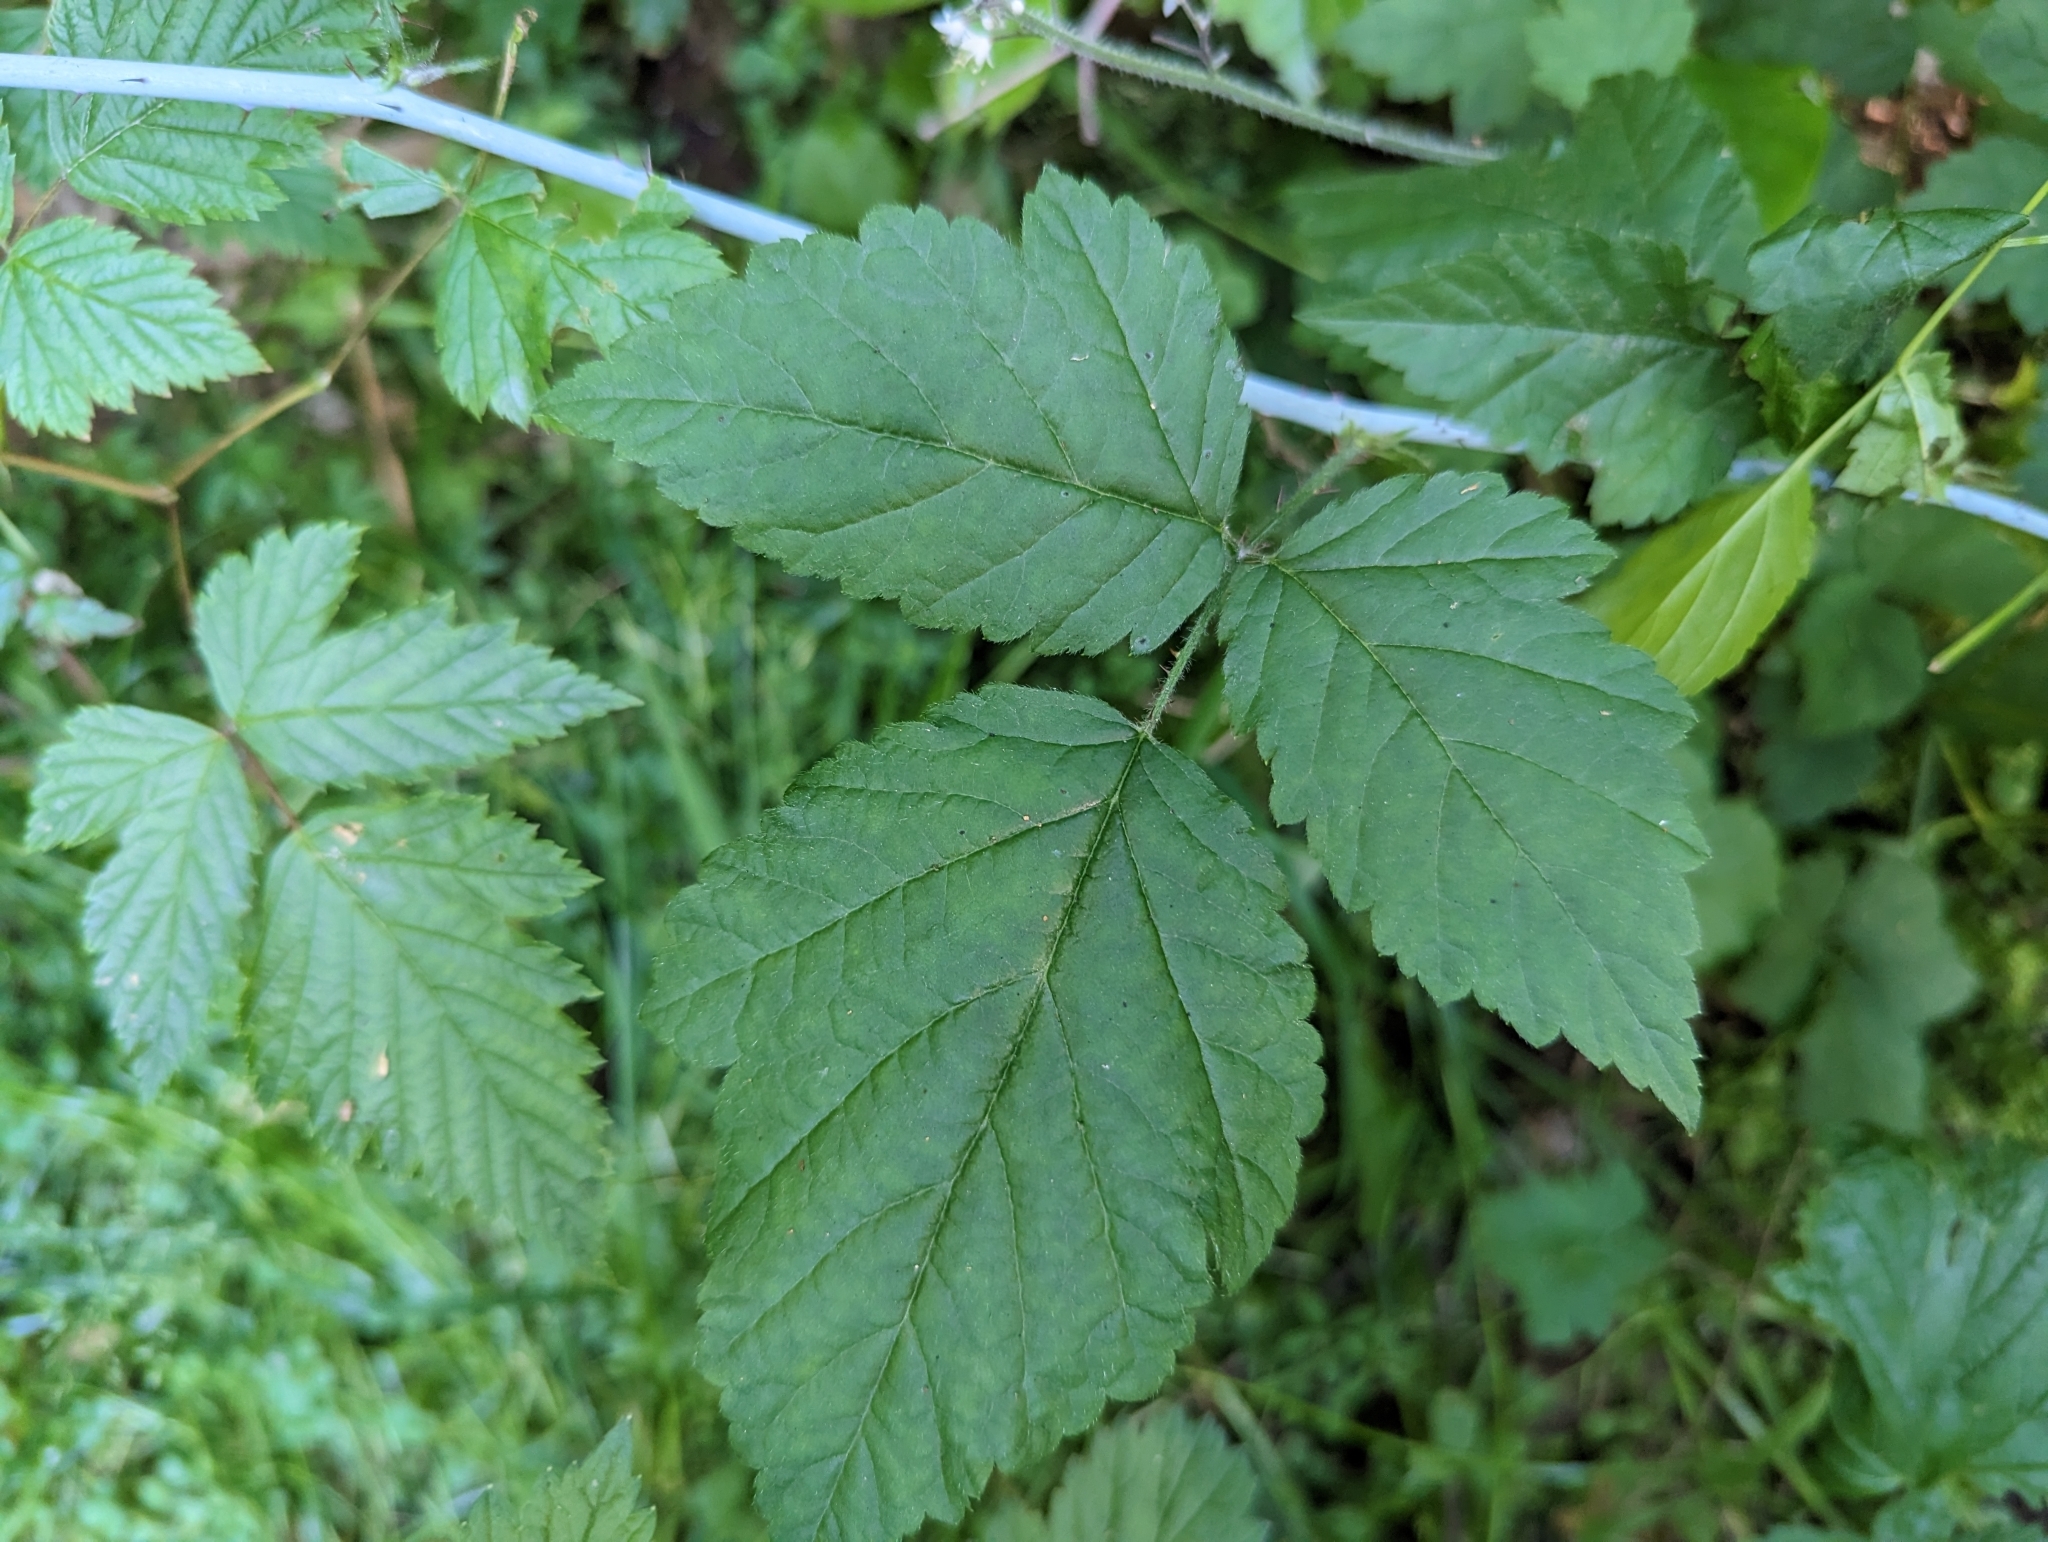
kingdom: Plantae
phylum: Tracheophyta
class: Magnoliopsida
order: Rosales
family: Rosaceae
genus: Rubus
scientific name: Rubus ursinus
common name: Pacific blackberry
